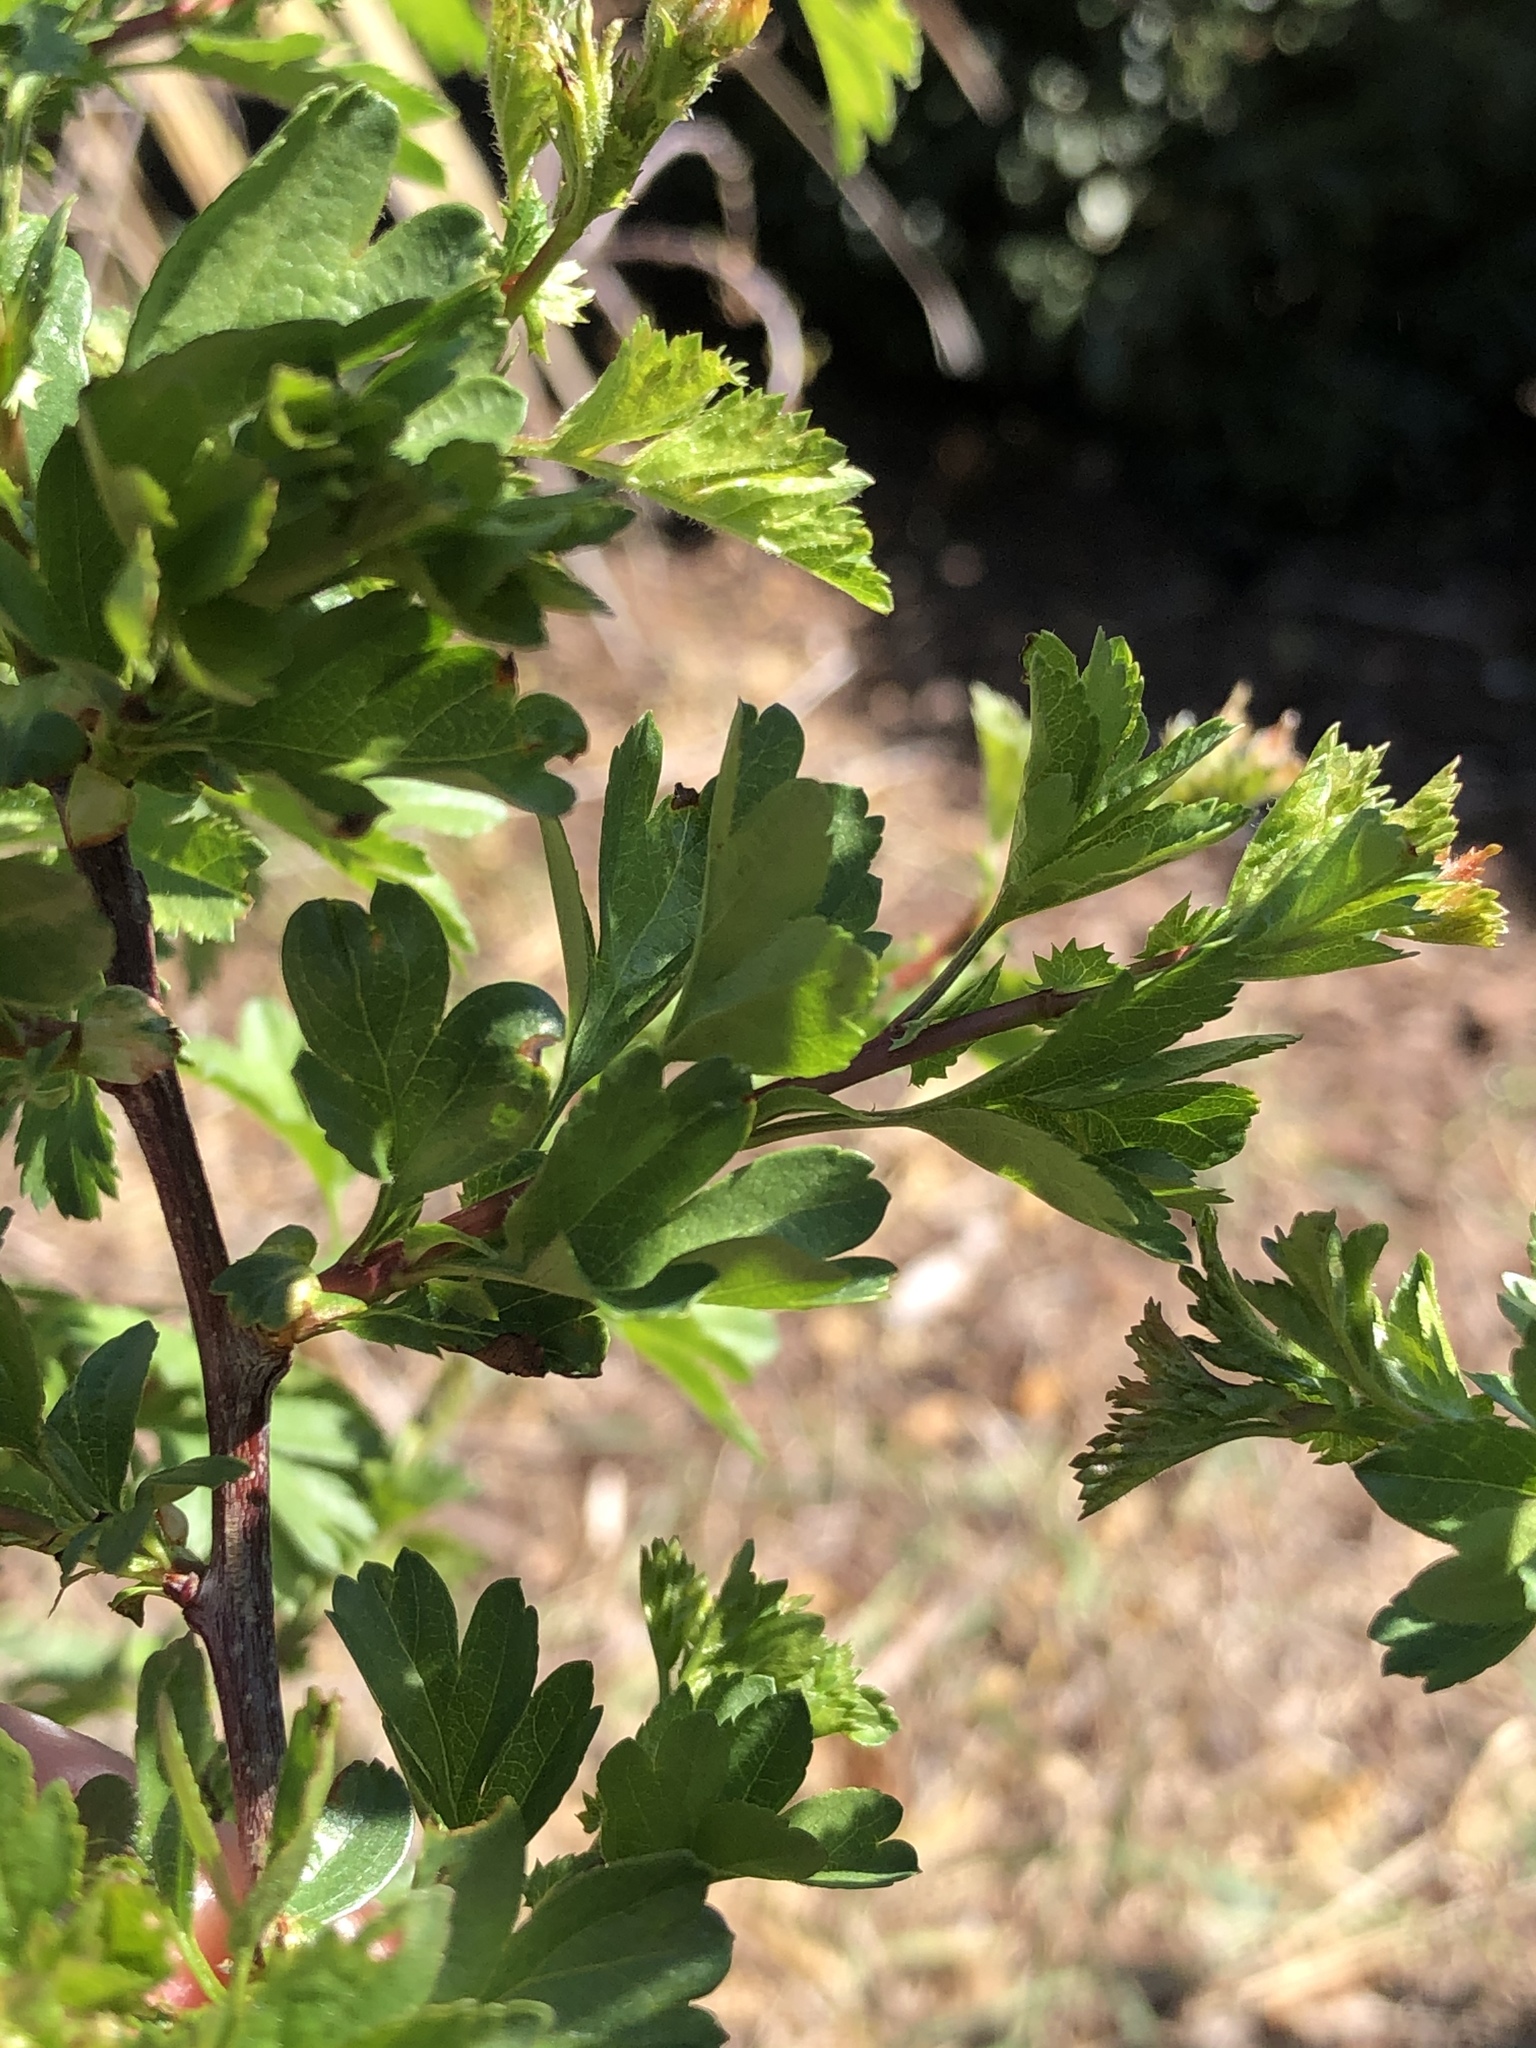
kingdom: Plantae
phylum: Tracheophyta
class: Magnoliopsida
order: Rosales
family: Rosaceae
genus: Crataegus
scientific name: Crataegus monogyna
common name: Hawthorn
